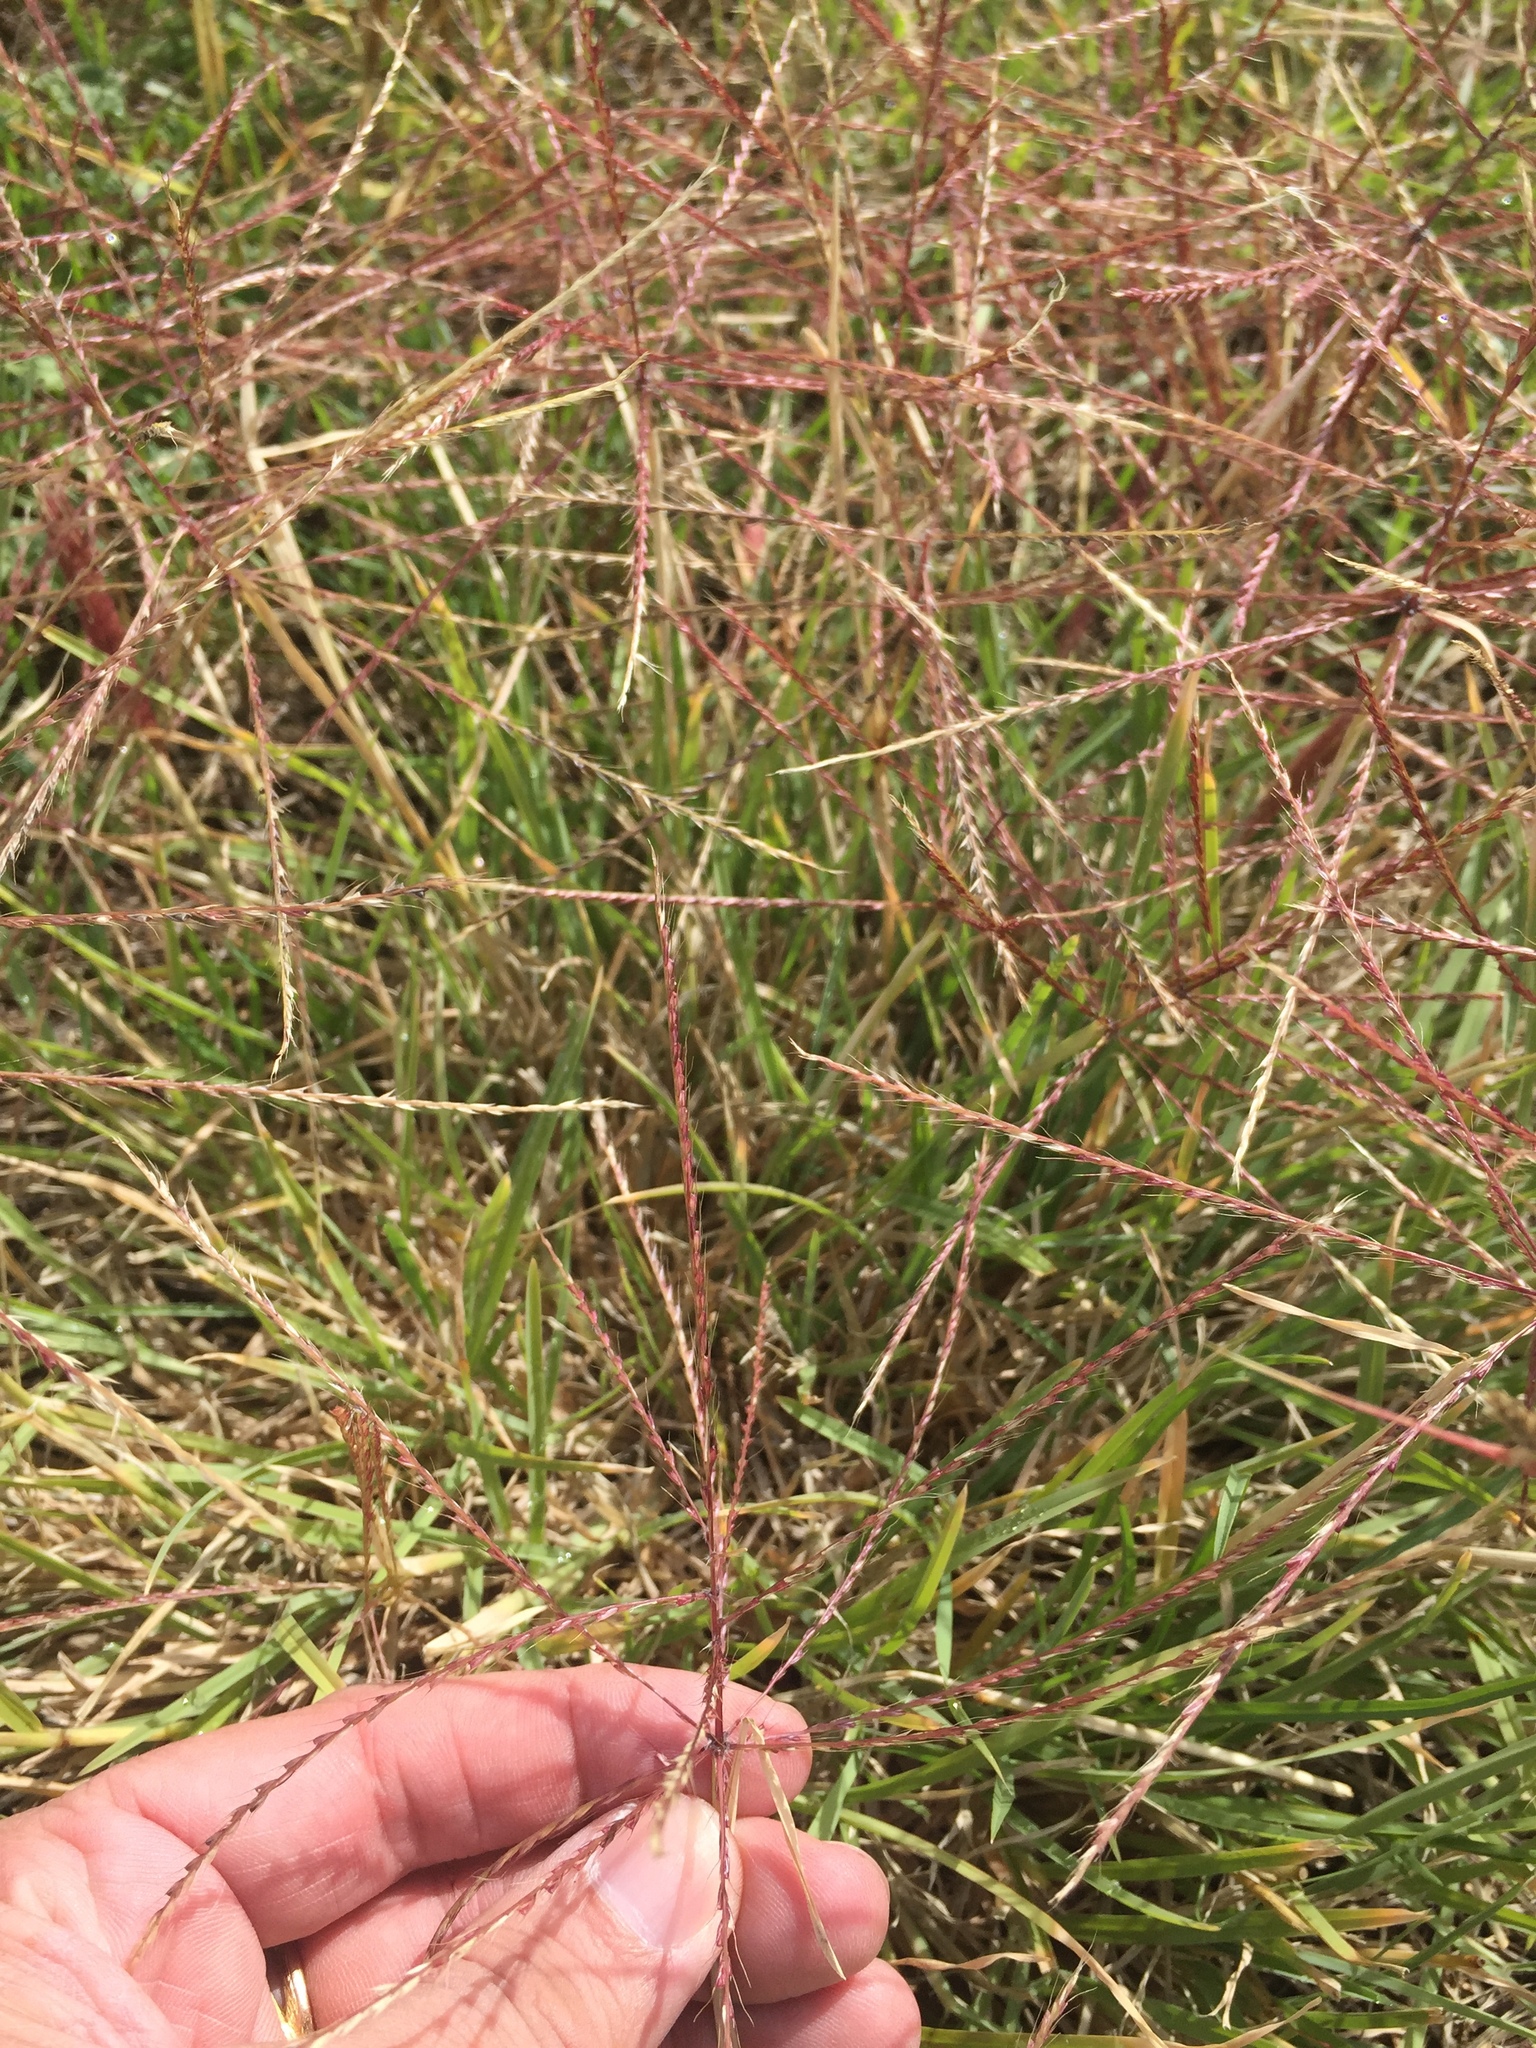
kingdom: Plantae
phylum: Tracheophyta
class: Liliopsida
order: Poales
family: Poaceae
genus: Chloris
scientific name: Chloris verticillata
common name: Tumble windmill grass
